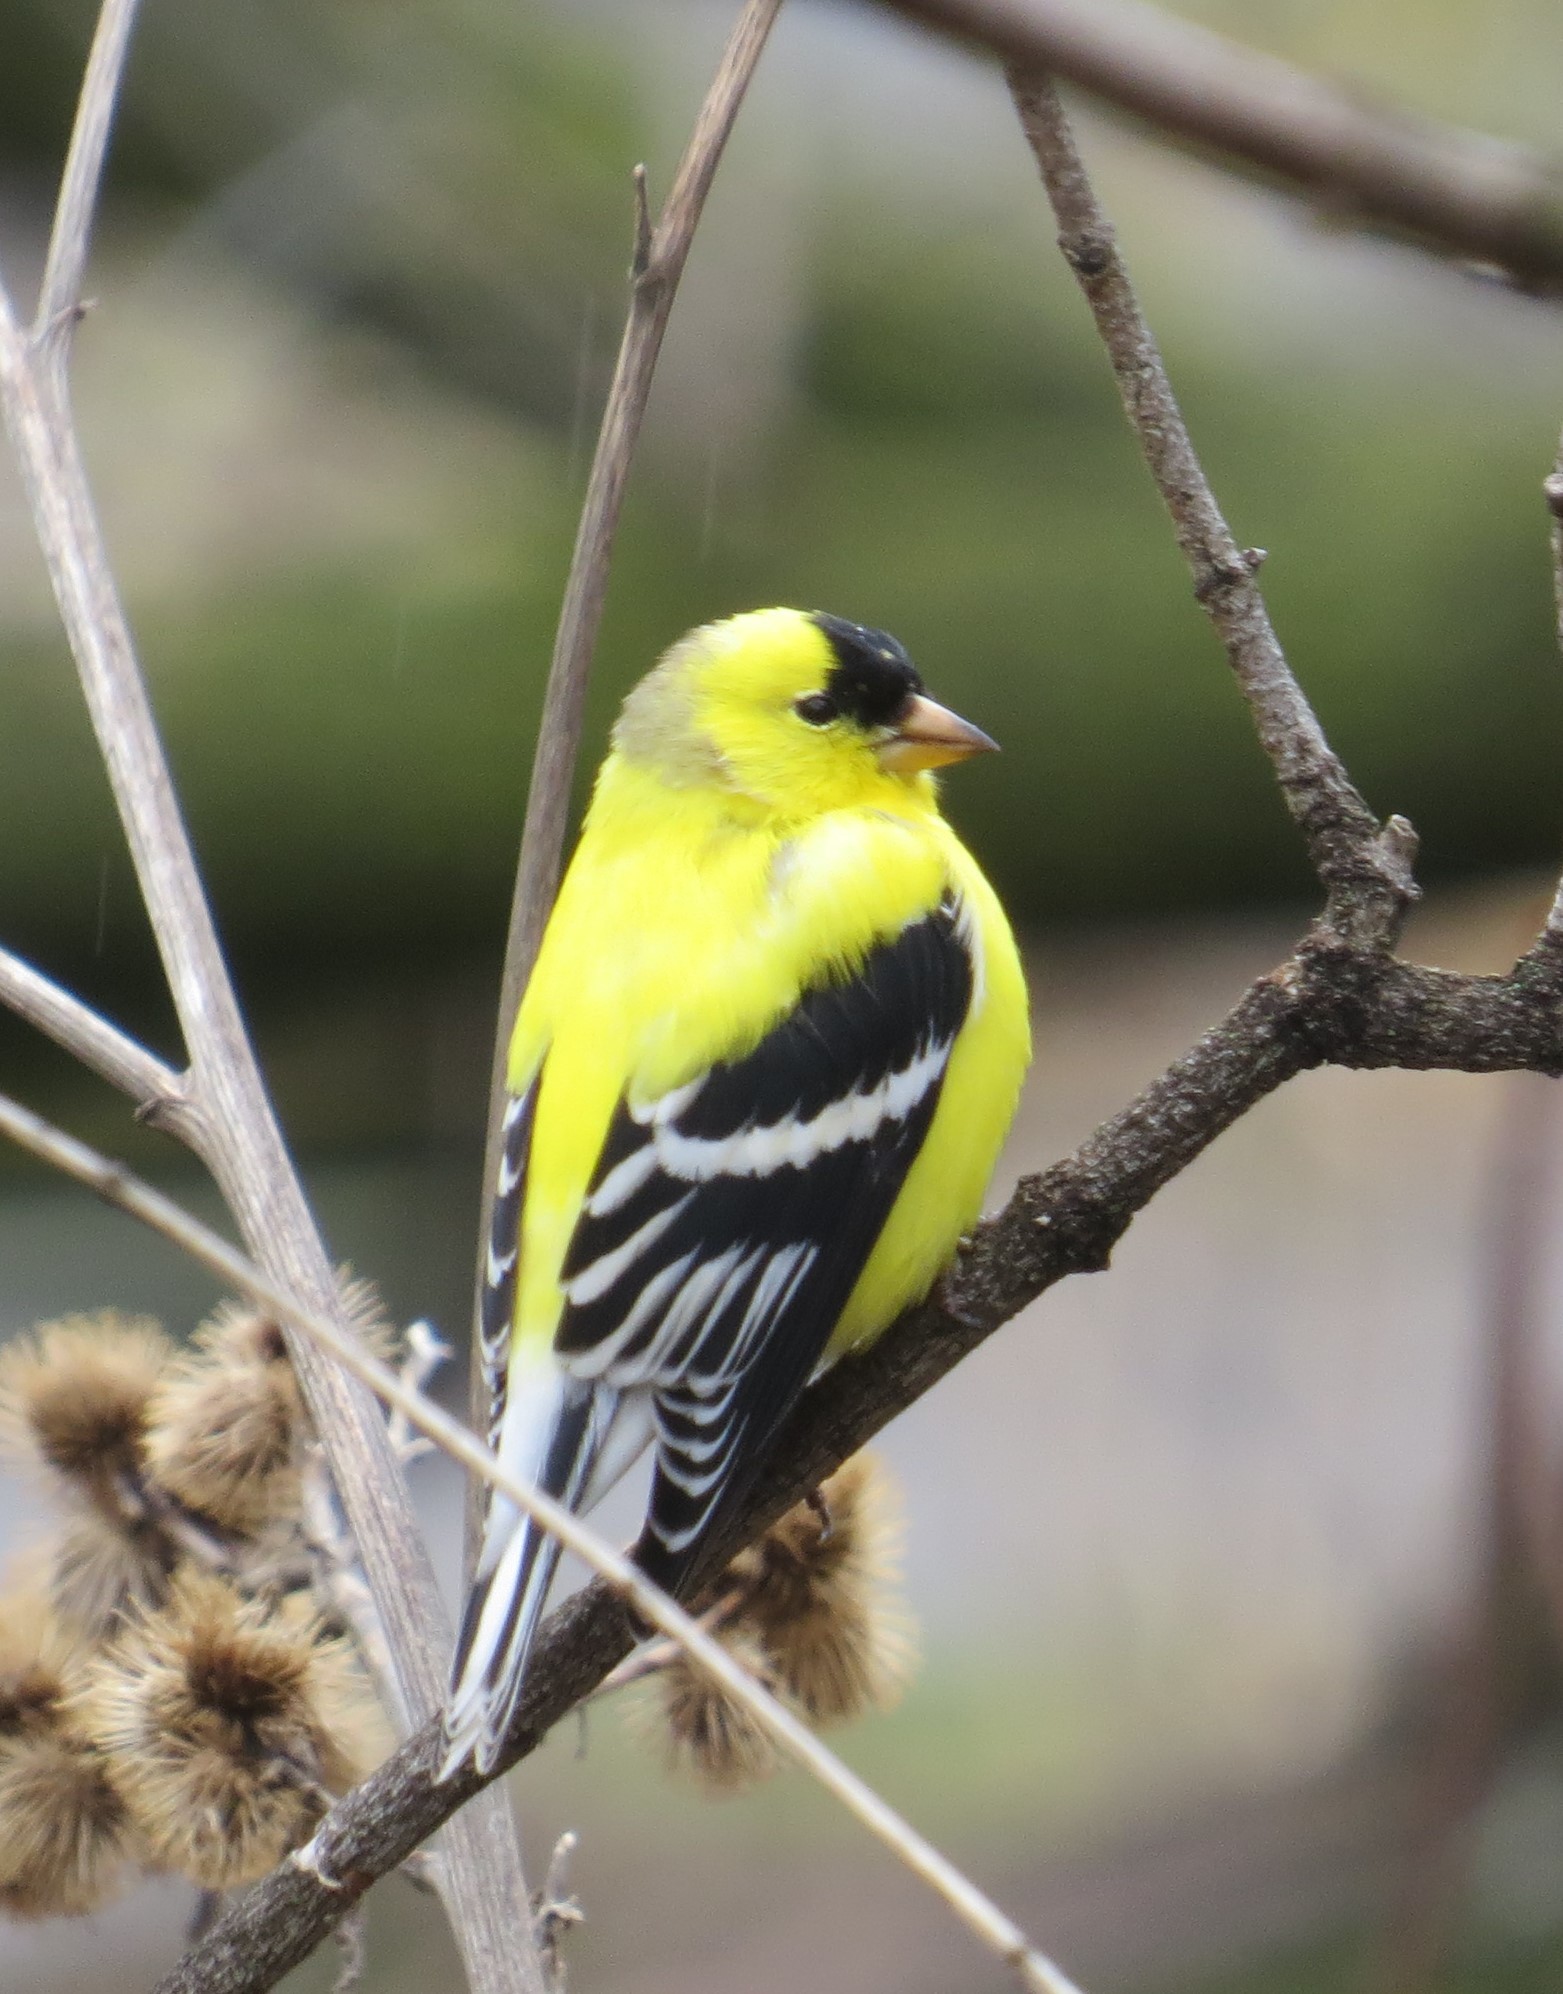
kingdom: Animalia
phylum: Chordata
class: Aves
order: Passeriformes
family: Fringillidae
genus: Spinus
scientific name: Spinus tristis
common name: American goldfinch
